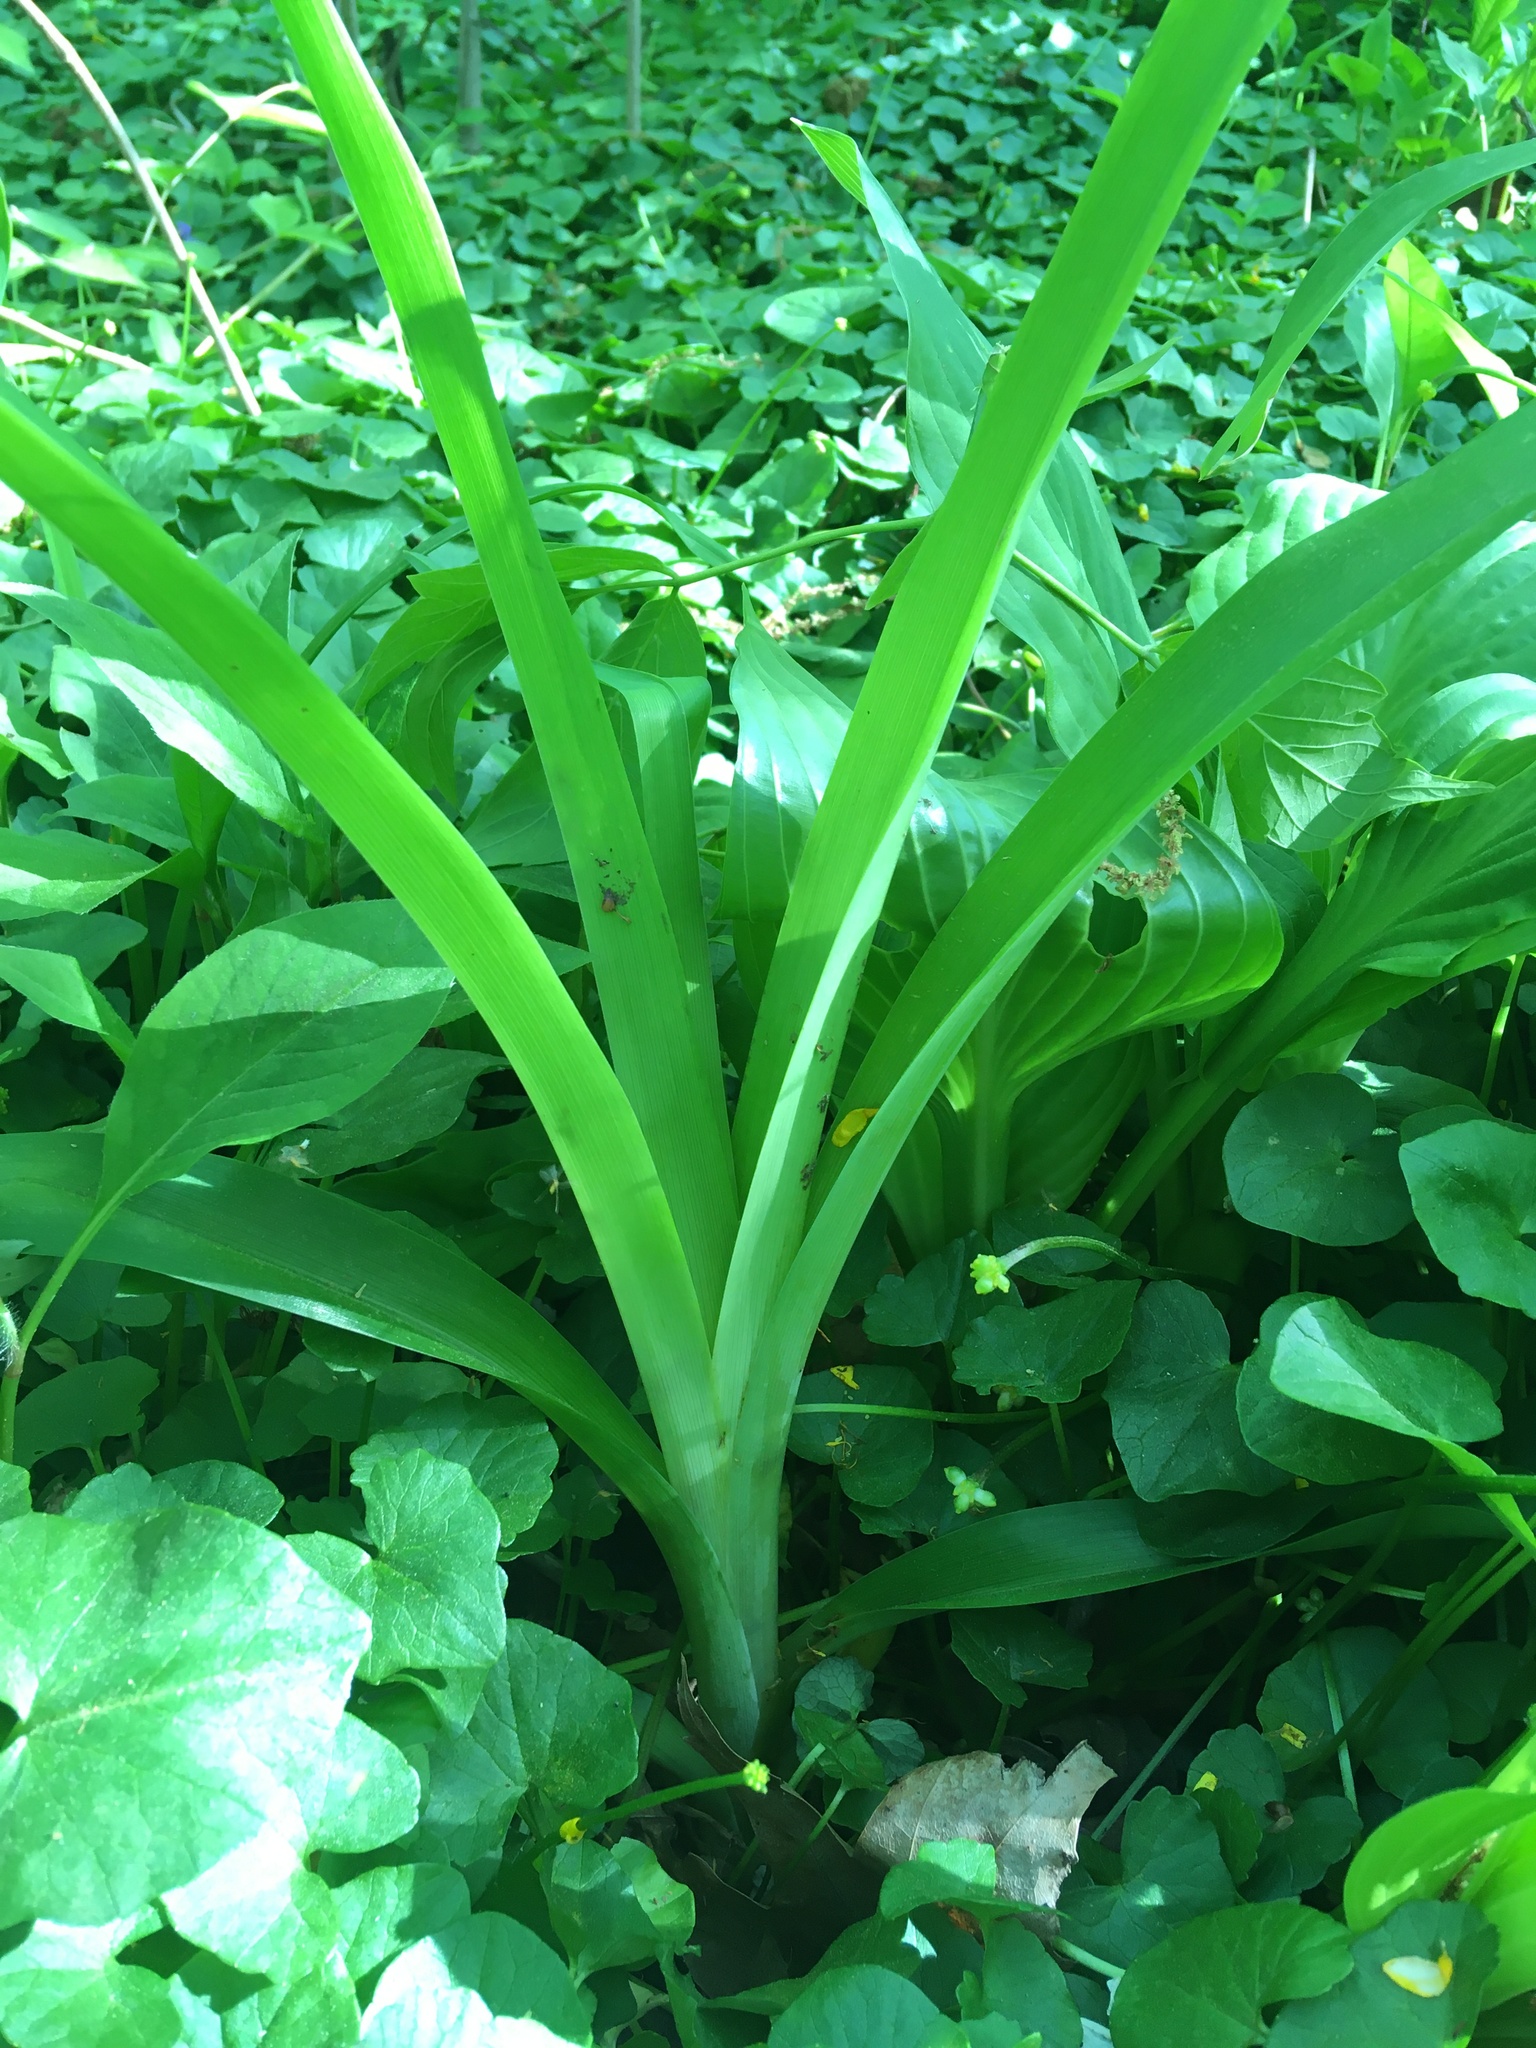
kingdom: Plantae
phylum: Tracheophyta
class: Liliopsida
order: Asparagales
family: Asphodelaceae
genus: Hemerocallis
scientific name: Hemerocallis fulva
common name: Orange day-lily
